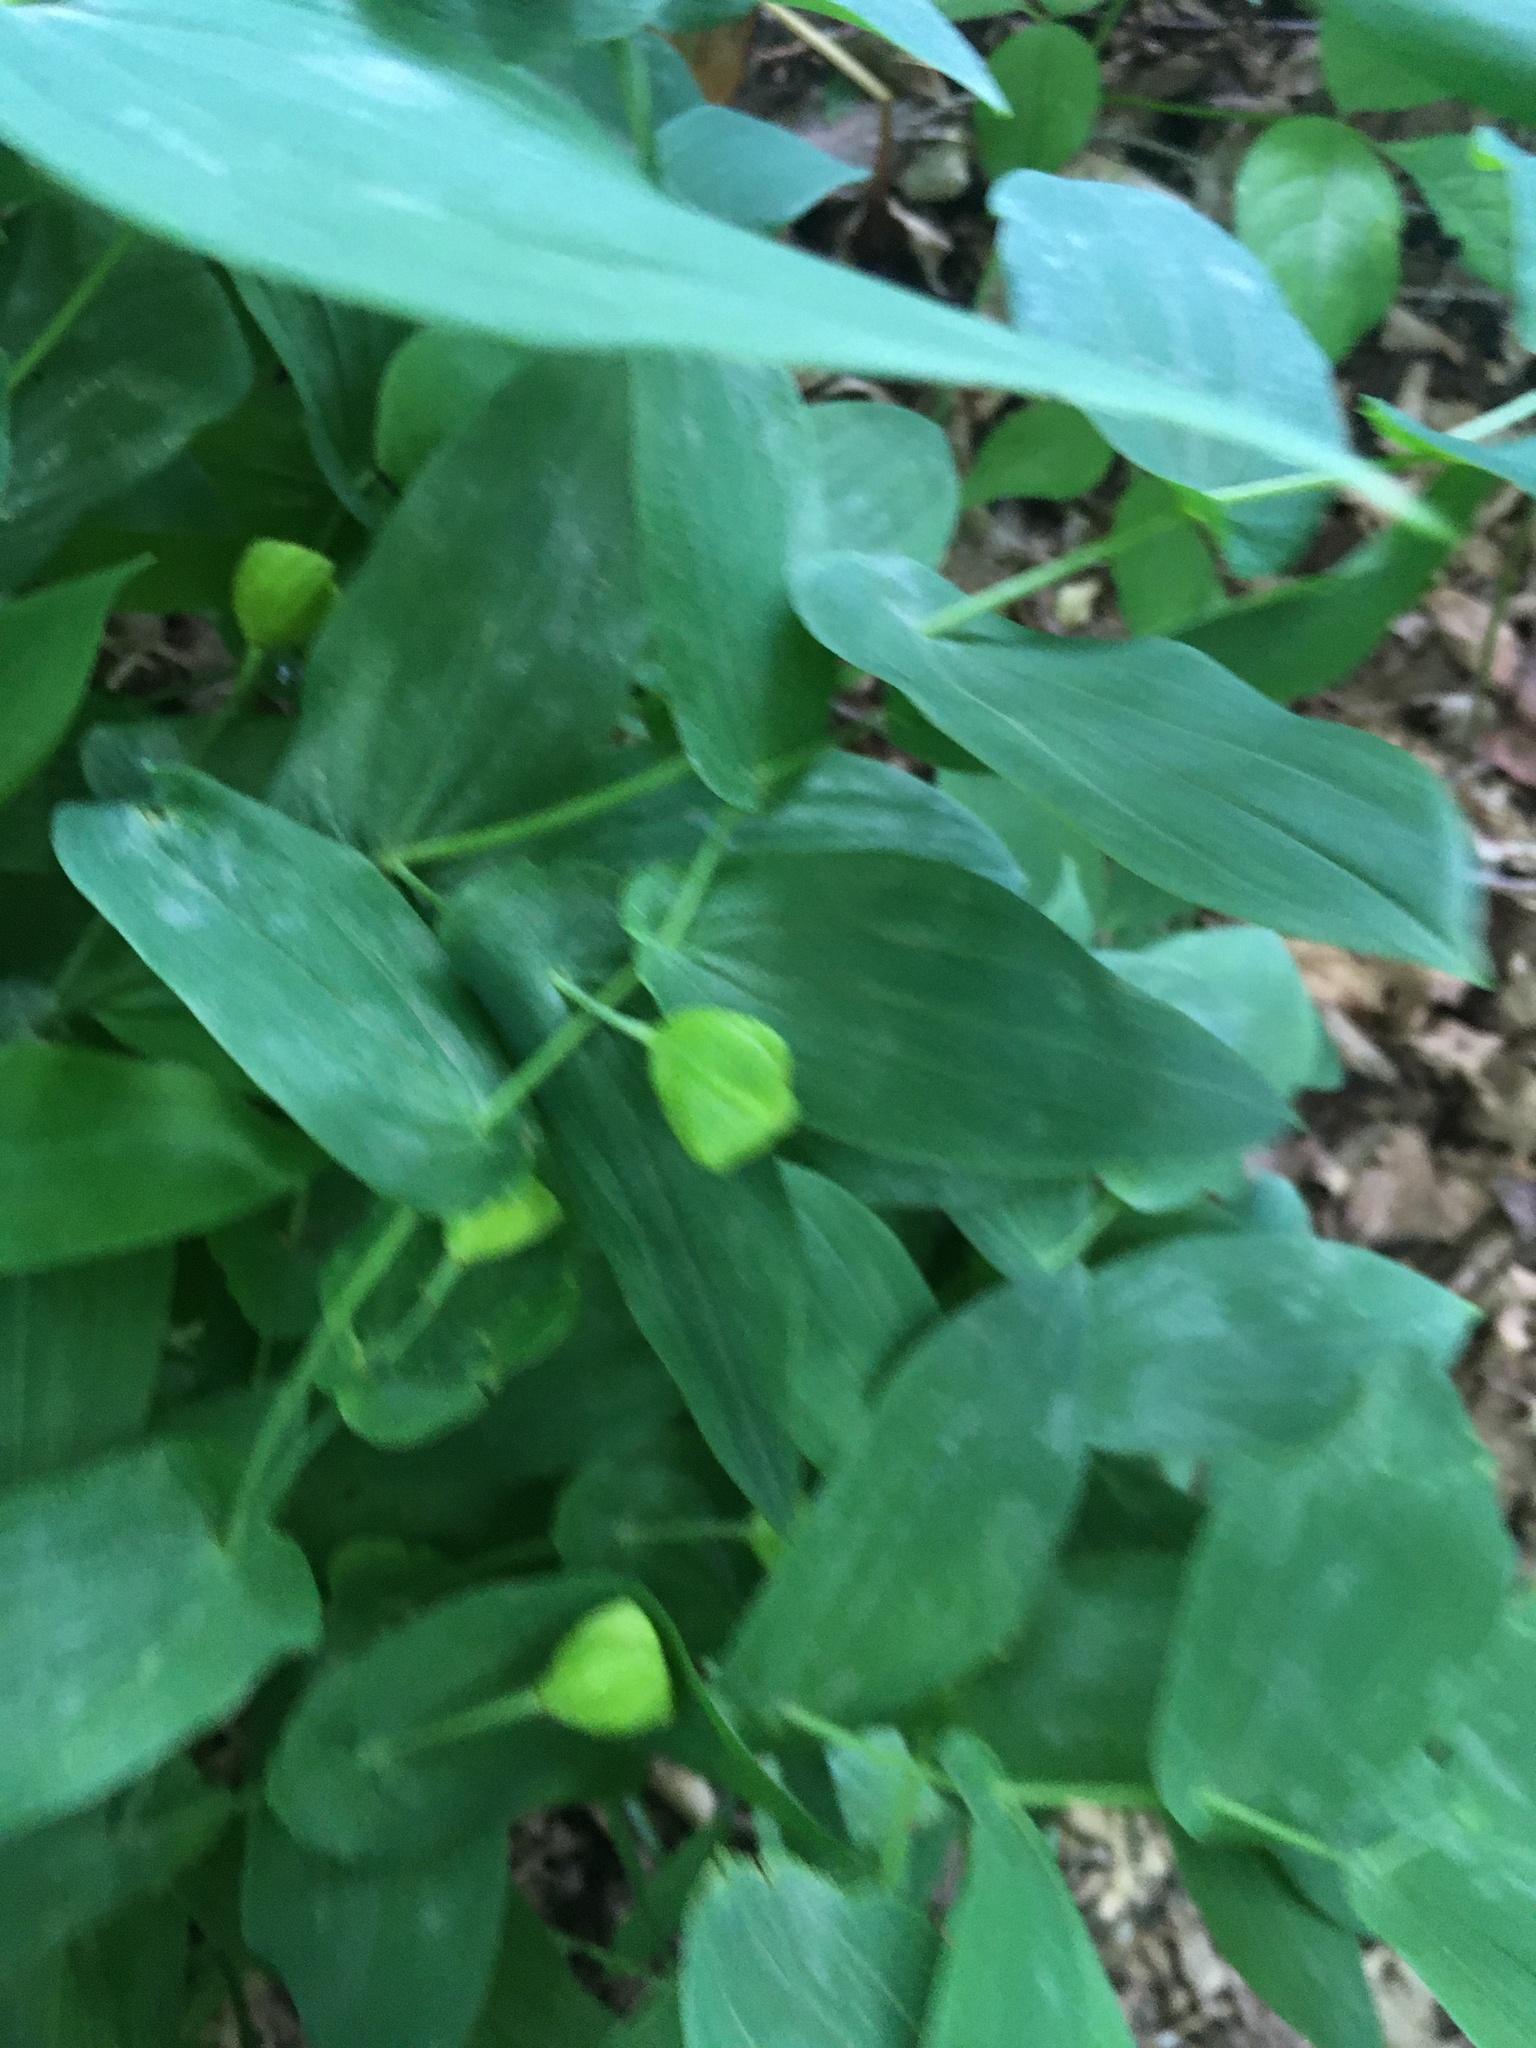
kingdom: Plantae
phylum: Tracheophyta
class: Liliopsida
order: Liliales
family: Colchicaceae
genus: Uvularia
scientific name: Uvularia grandiflora
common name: Bellwort
